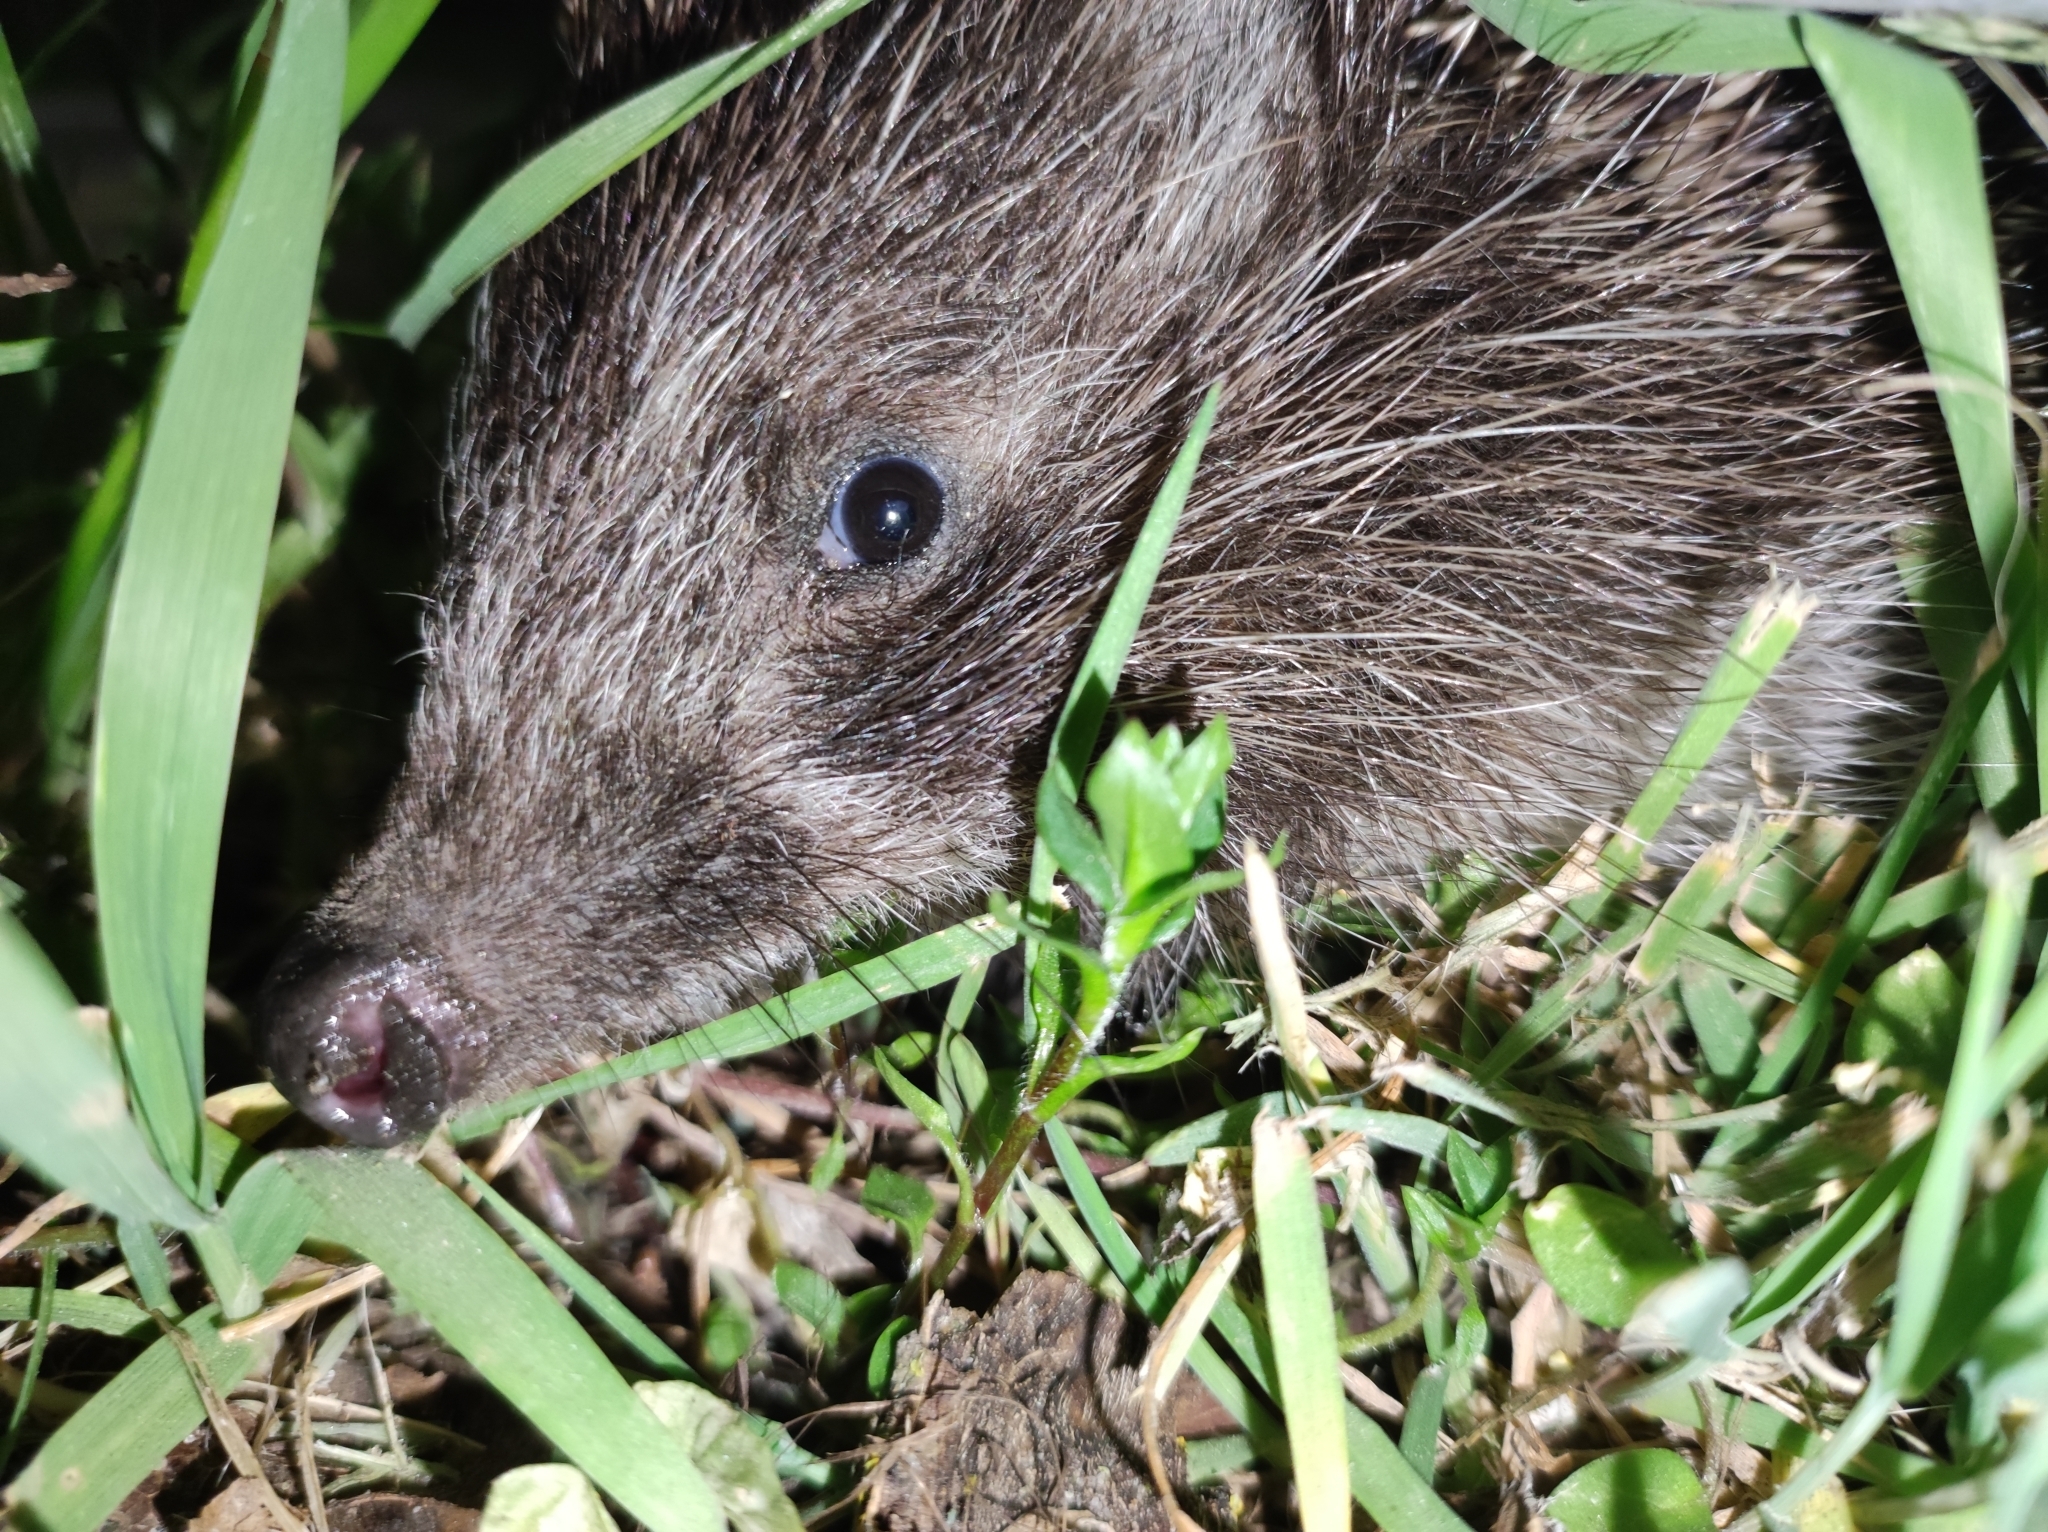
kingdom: Animalia
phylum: Chordata
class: Mammalia
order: Erinaceomorpha
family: Erinaceidae
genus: Erinaceus
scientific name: Erinaceus roumanicus
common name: Northern white-breasted hedgehog
